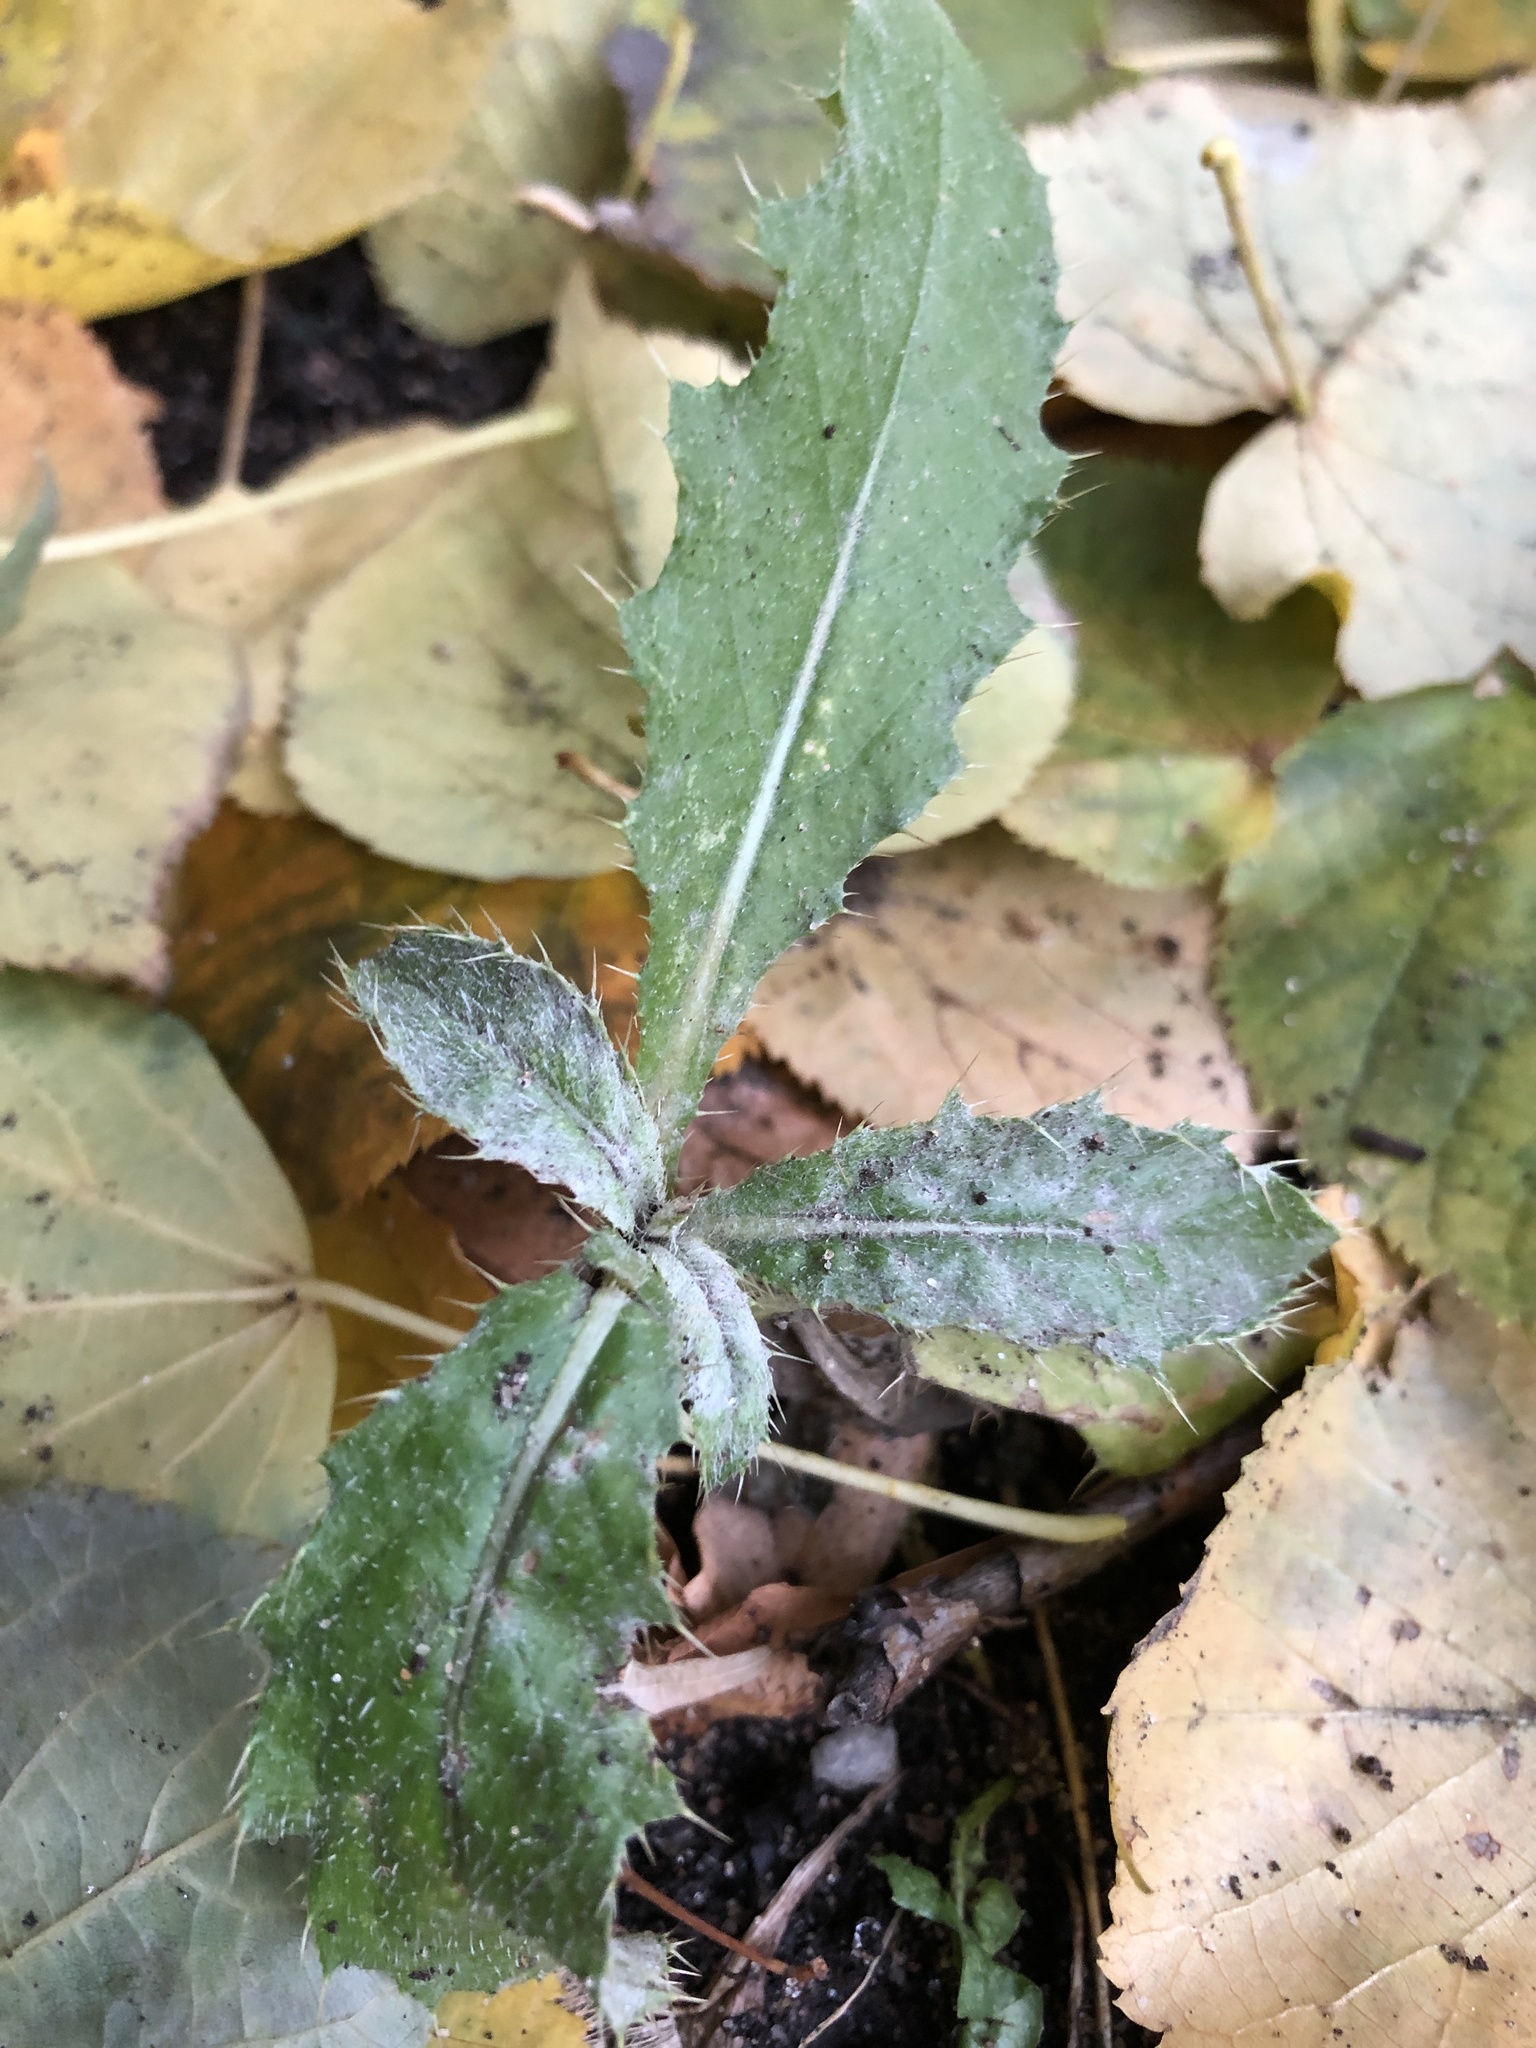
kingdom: Plantae
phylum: Tracheophyta
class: Magnoliopsida
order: Asterales
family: Asteraceae
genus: Cirsium
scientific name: Cirsium arvense
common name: Creeping thistle
